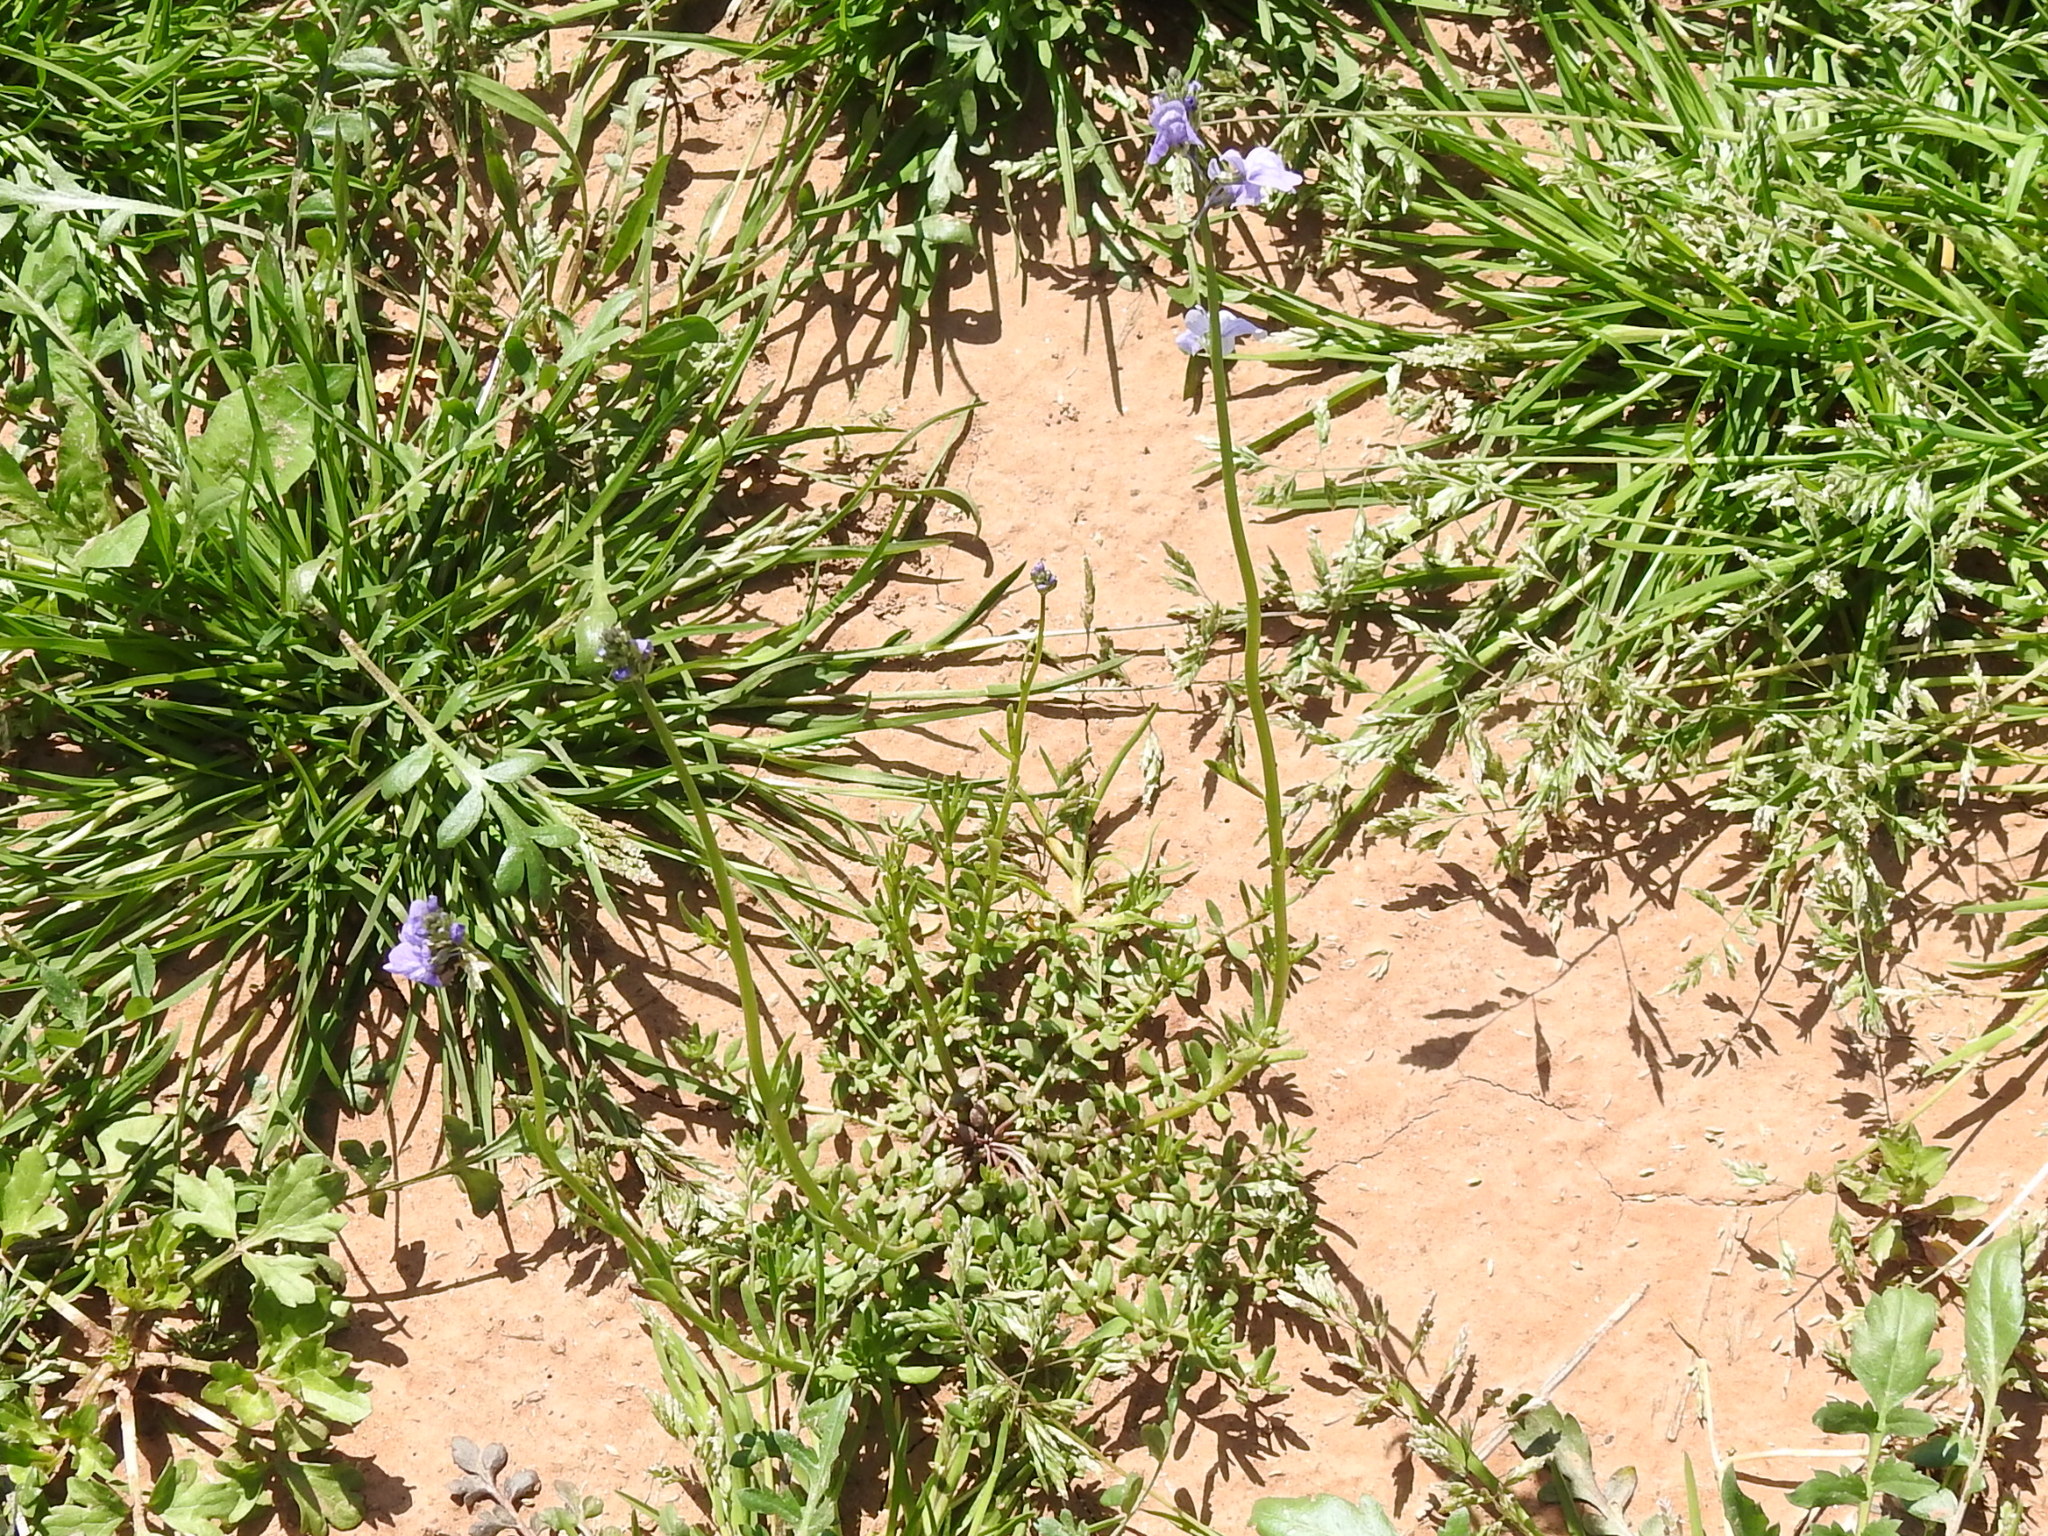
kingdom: Plantae
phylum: Tracheophyta
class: Magnoliopsida
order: Lamiales
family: Plantaginaceae
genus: Nuttallanthus
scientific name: Nuttallanthus texanus
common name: Texas toadflax
